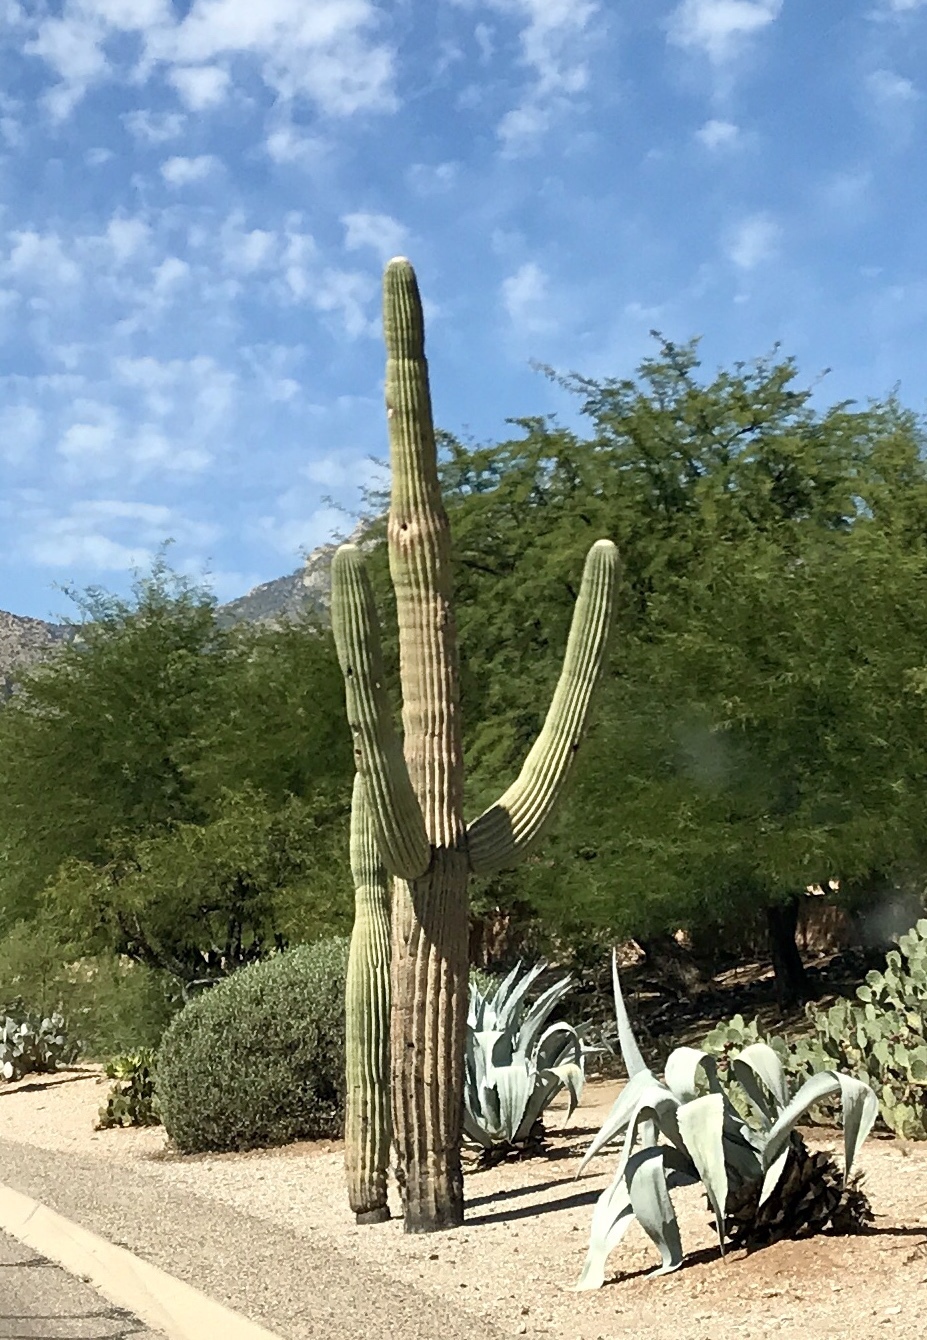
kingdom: Plantae
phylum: Tracheophyta
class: Magnoliopsida
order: Caryophyllales
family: Cactaceae
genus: Carnegiea
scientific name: Carnegiea gigantea
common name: Saguaro
